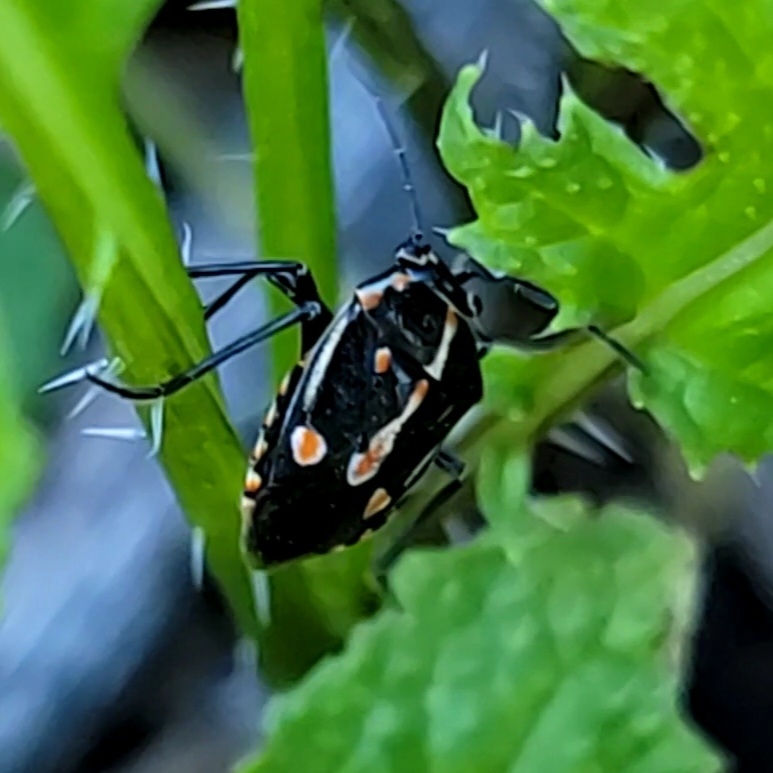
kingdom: Animalia
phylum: Arthropoda
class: Insecta
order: Hemiptera
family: Pentatomidae
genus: Bagrada
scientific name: Bagrada hilaris
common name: Bagrada bug
